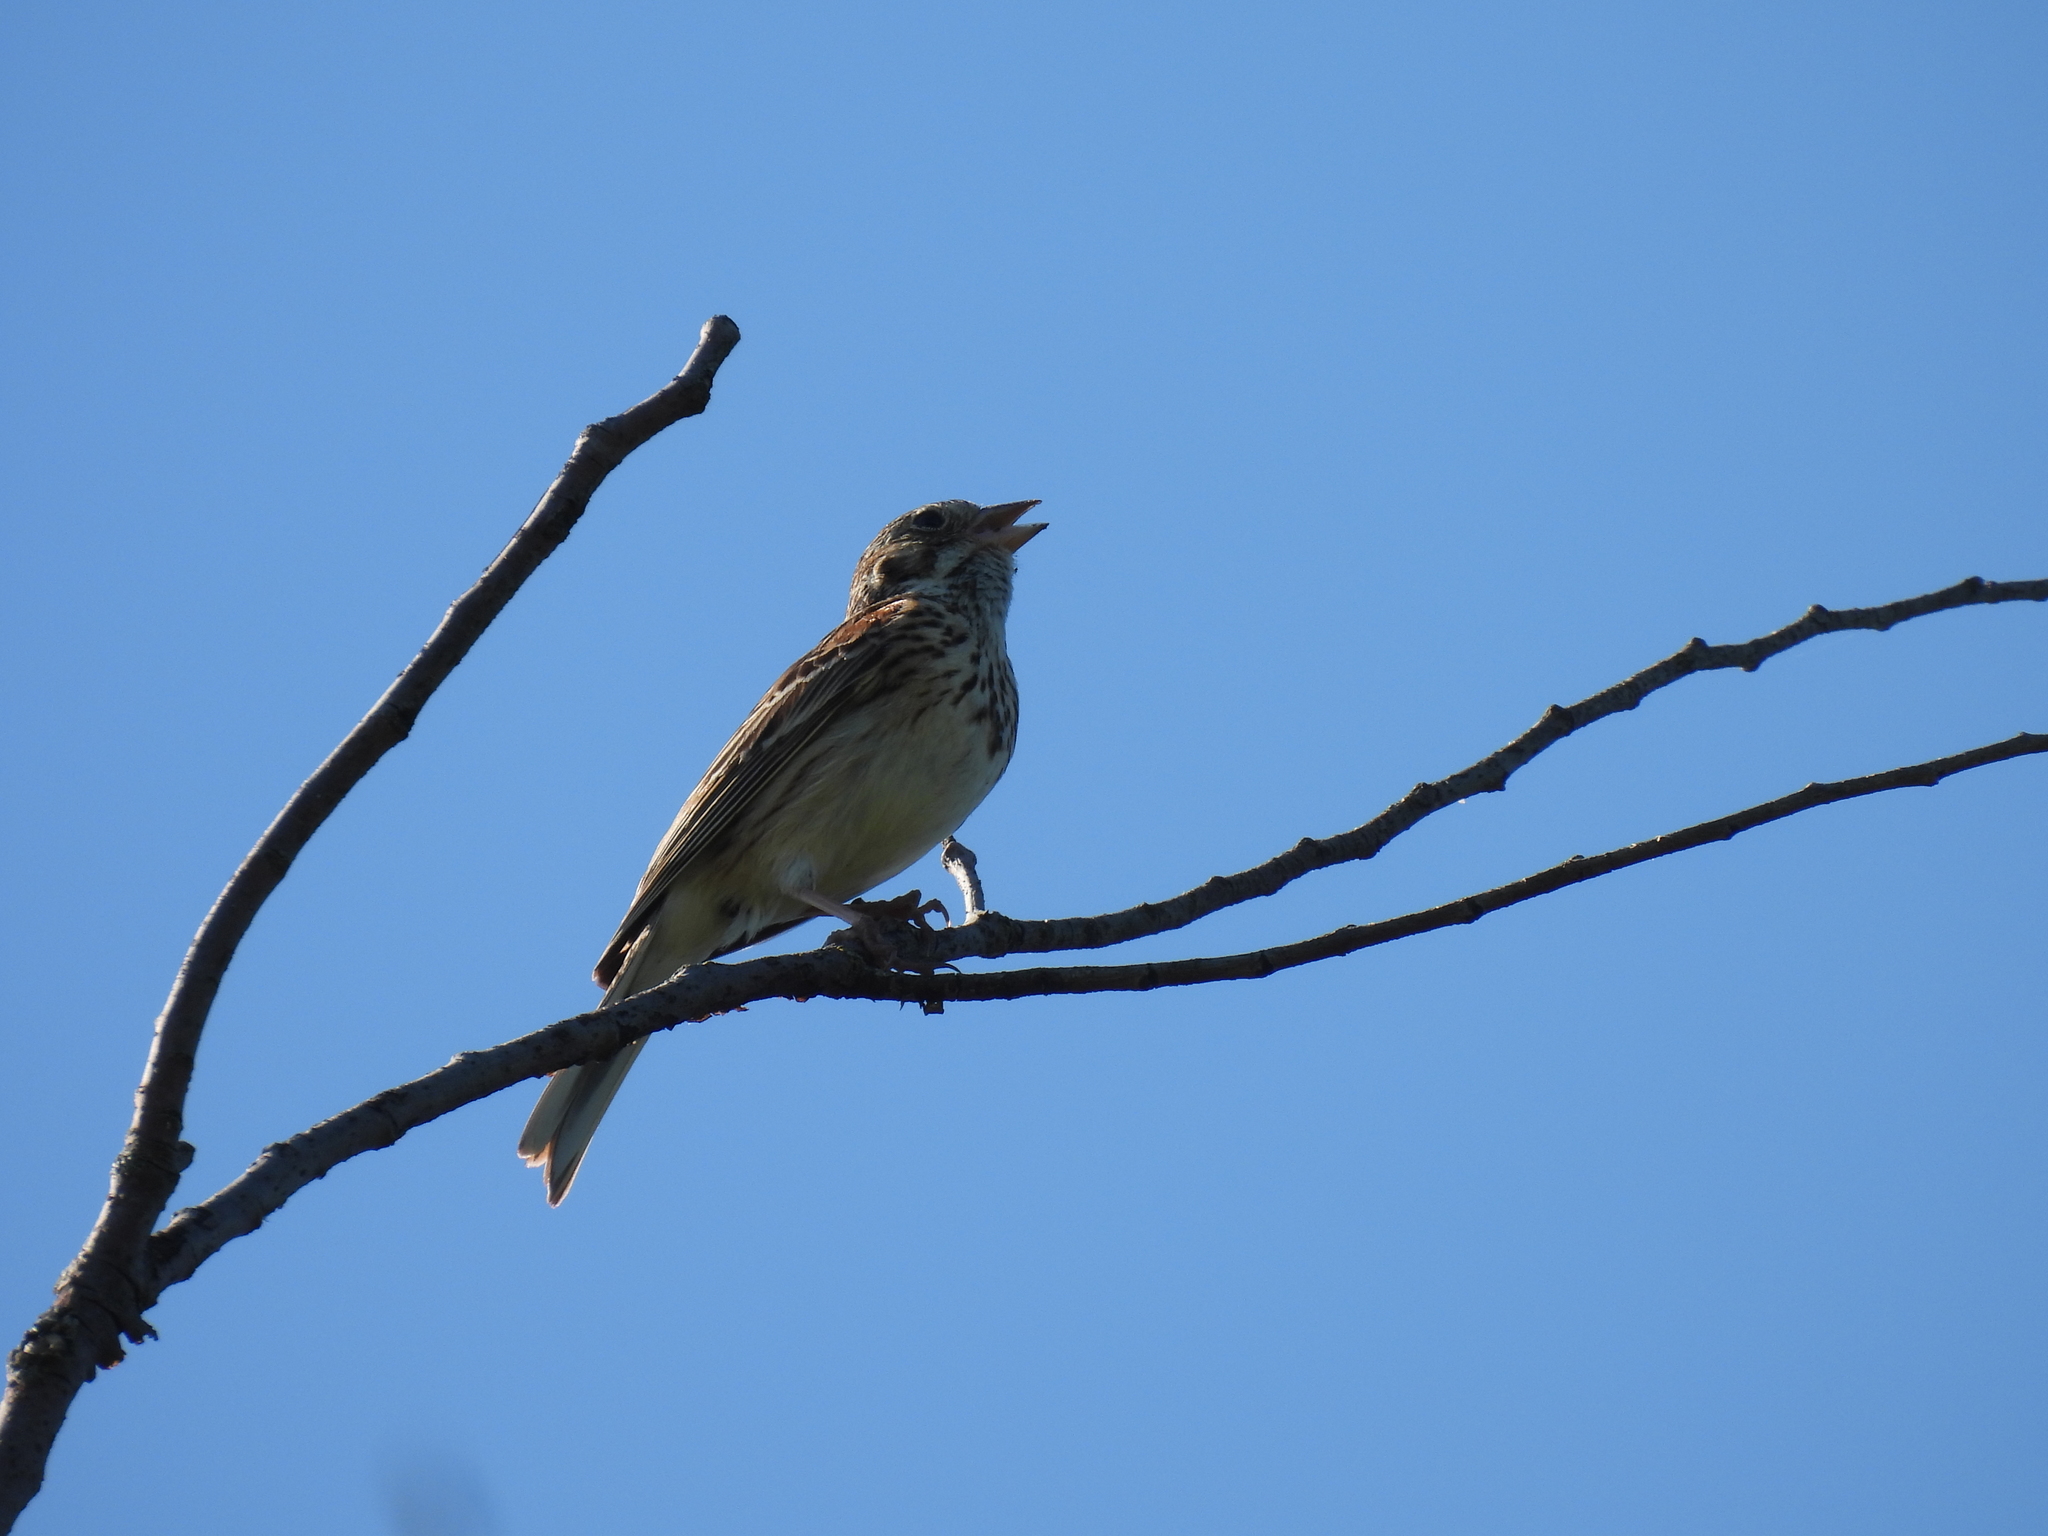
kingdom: Animalia
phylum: Chordata
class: Aves
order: Passeriformes
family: Passerellidae
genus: Pooecetes
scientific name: Pooecetes gramineus
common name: Vesper sparrow
